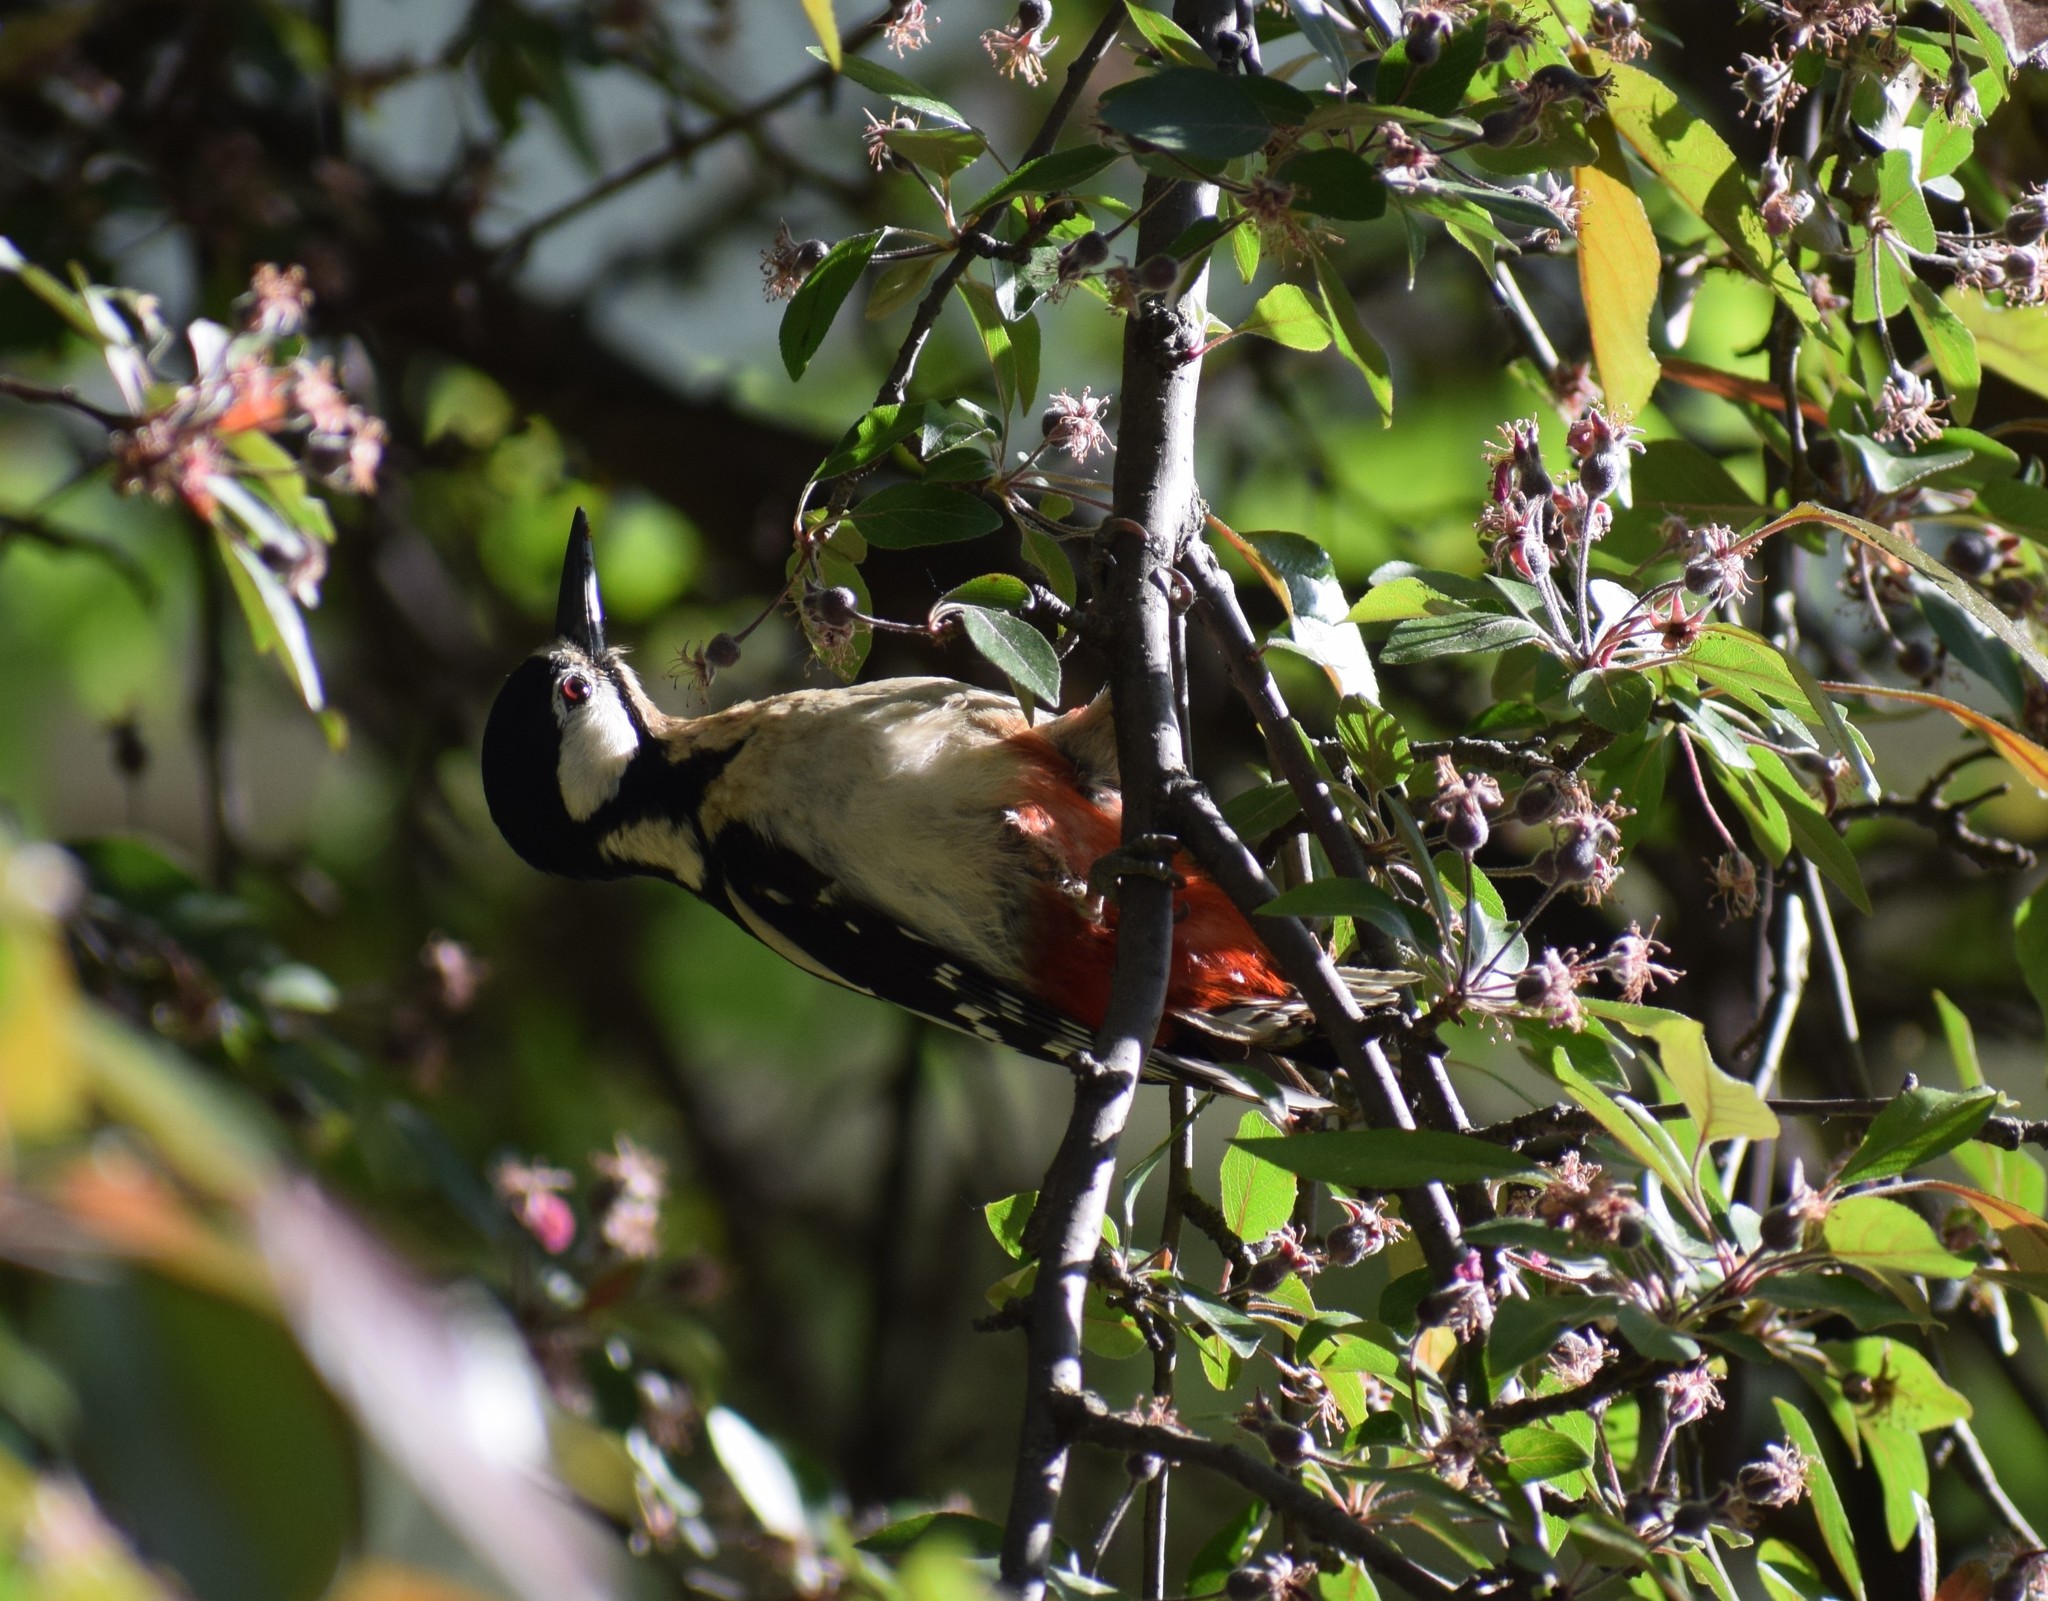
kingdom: Animalia
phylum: Chordata
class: Aves
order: Piciformes
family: Picidae
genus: Dendrocopos
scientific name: Dendrocopos major
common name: Great spotted woodpecker
